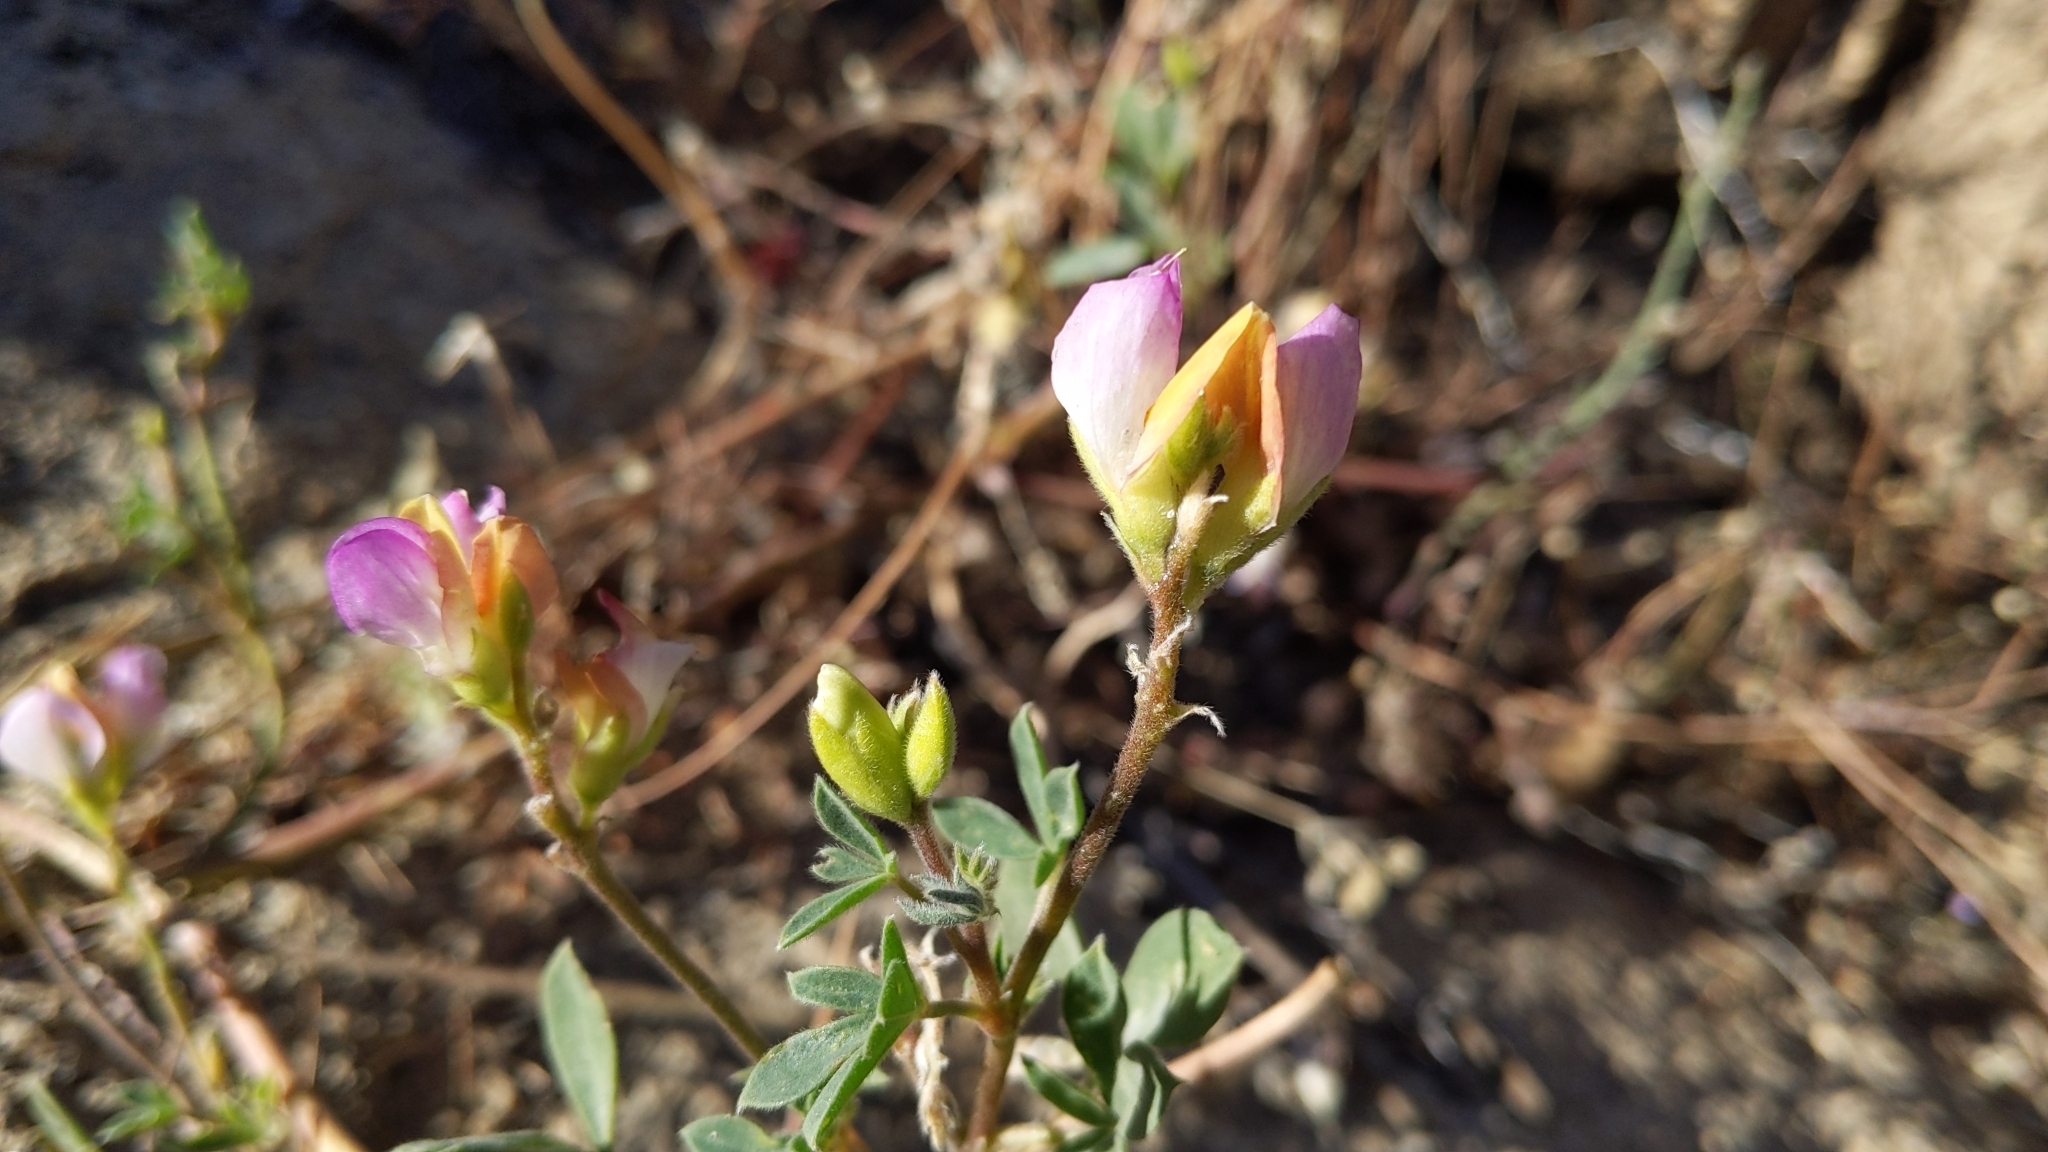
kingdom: Plantae
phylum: Tracheophyta
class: Magnoliopsida
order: Fabales
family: Fabaceae
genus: Lupinus
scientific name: Lupinus stiversii
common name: Harlequin lupine
